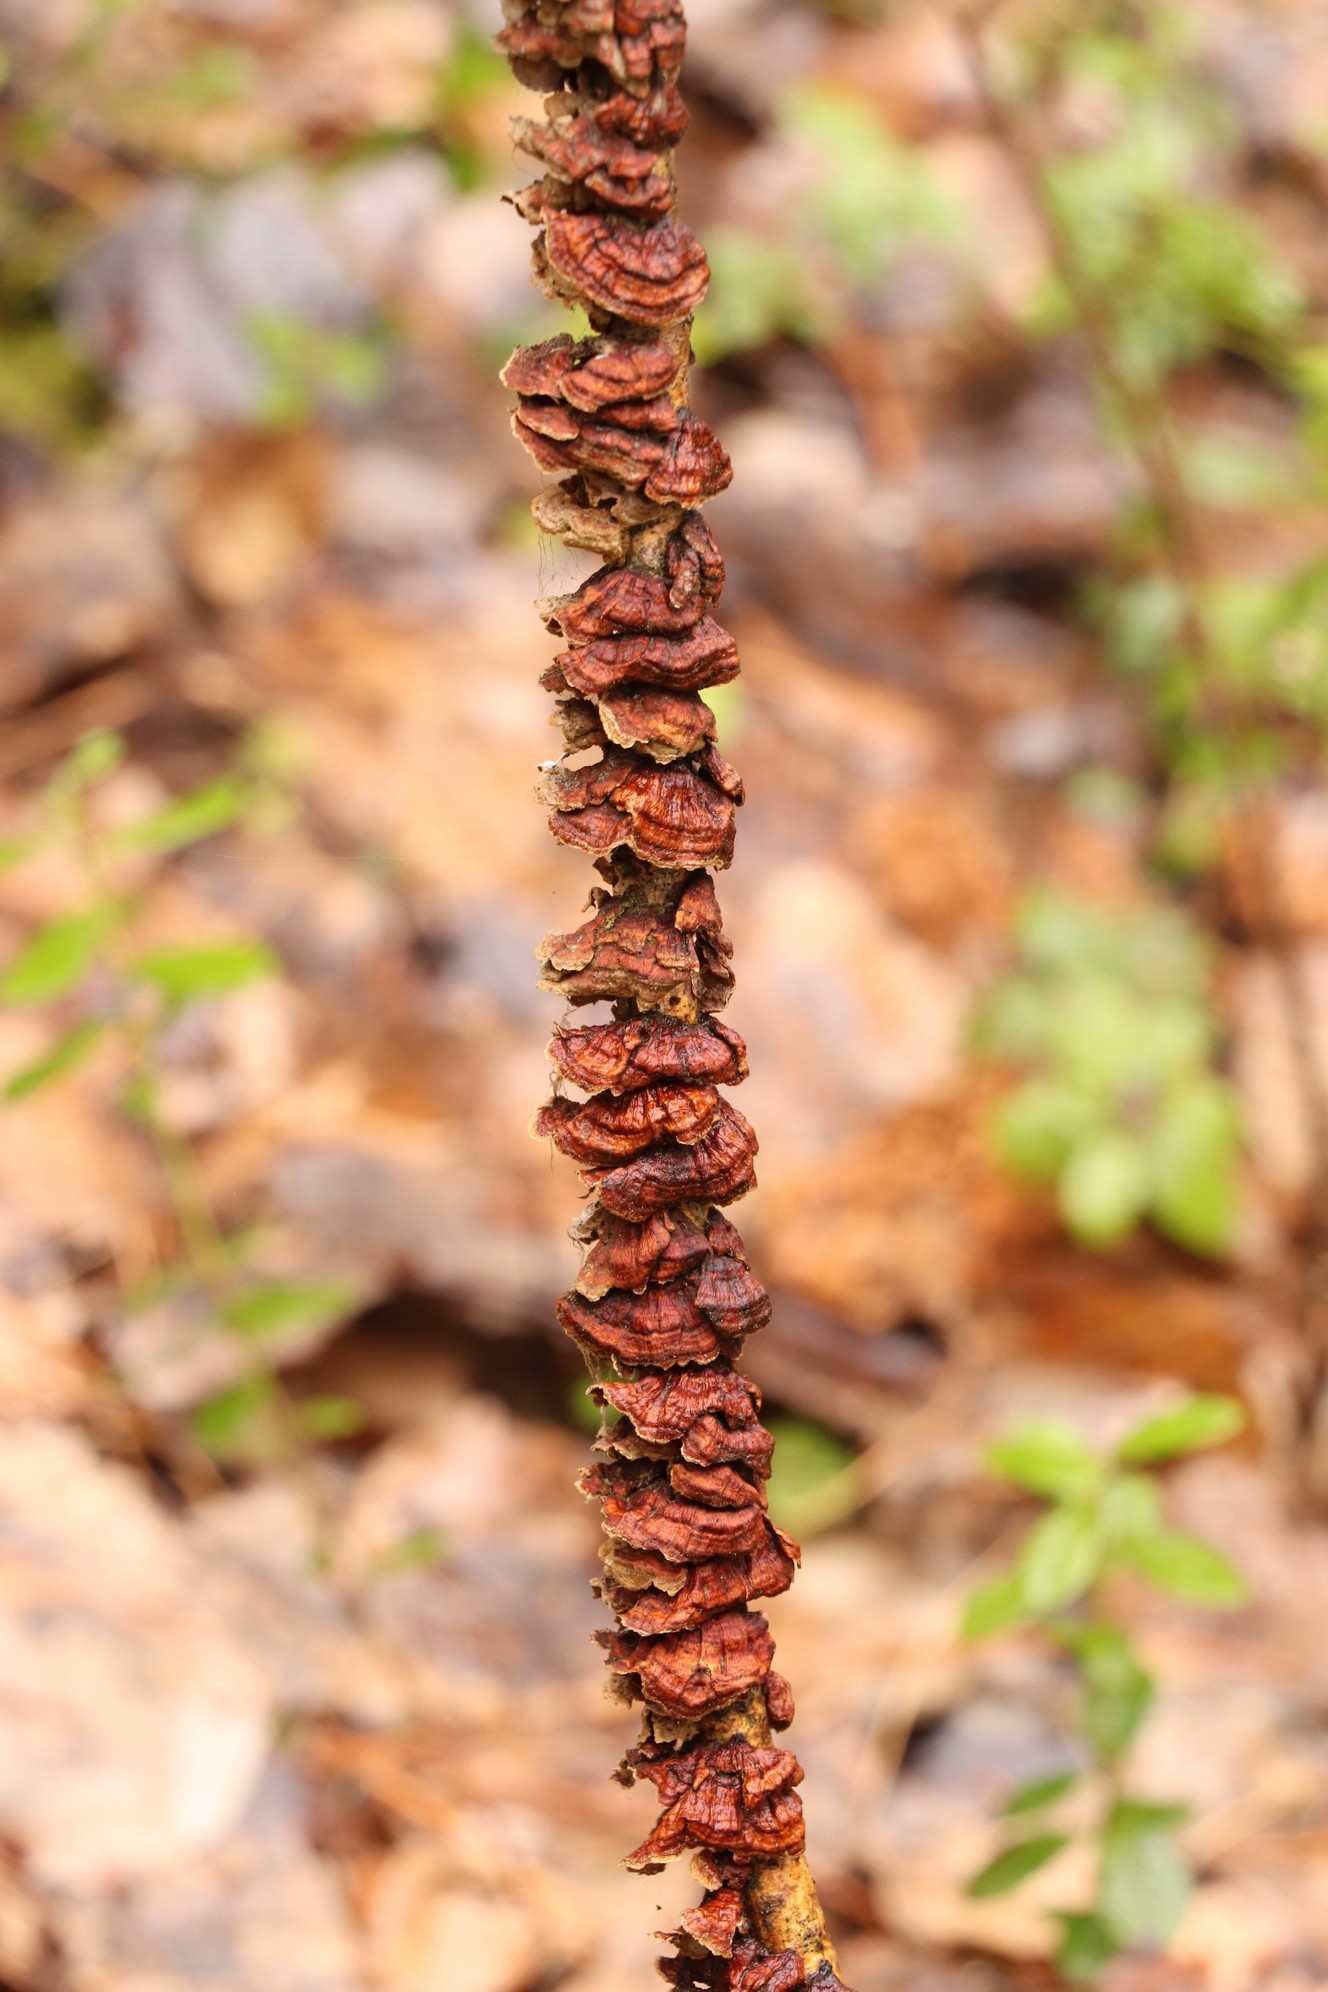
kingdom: Fungi
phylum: Basidiomycota
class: Agaricomycetes
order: Hymenochaetales
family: Hymenochaetaceae
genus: Hydnoporia
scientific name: Hydnoporia tabacina
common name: Willow glue
